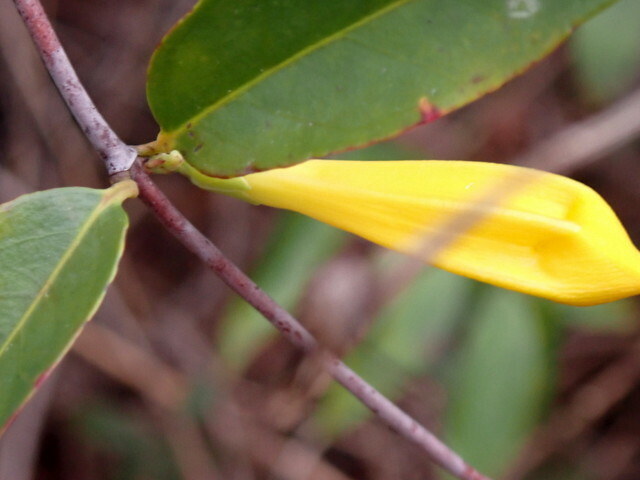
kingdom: Plantae
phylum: Tracheophyta
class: Magnoliopsida
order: Gentianales
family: Gelsemiaceae
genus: Gelsemium
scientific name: Gelsemium sempervirens
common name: Carolina-jasmine
